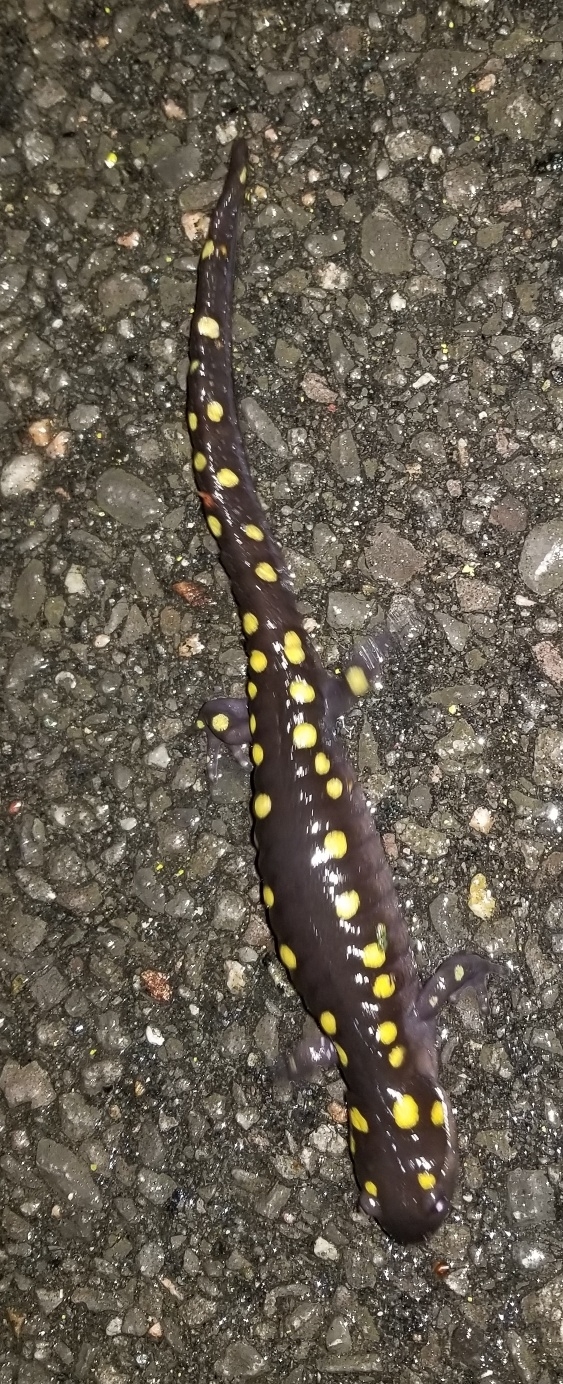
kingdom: Animalia
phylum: Chordata
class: Amphibia
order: Caudata
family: Ambystomatidae
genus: Ambystoma
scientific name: Ambystoma maculatum
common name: Spotted salamander
